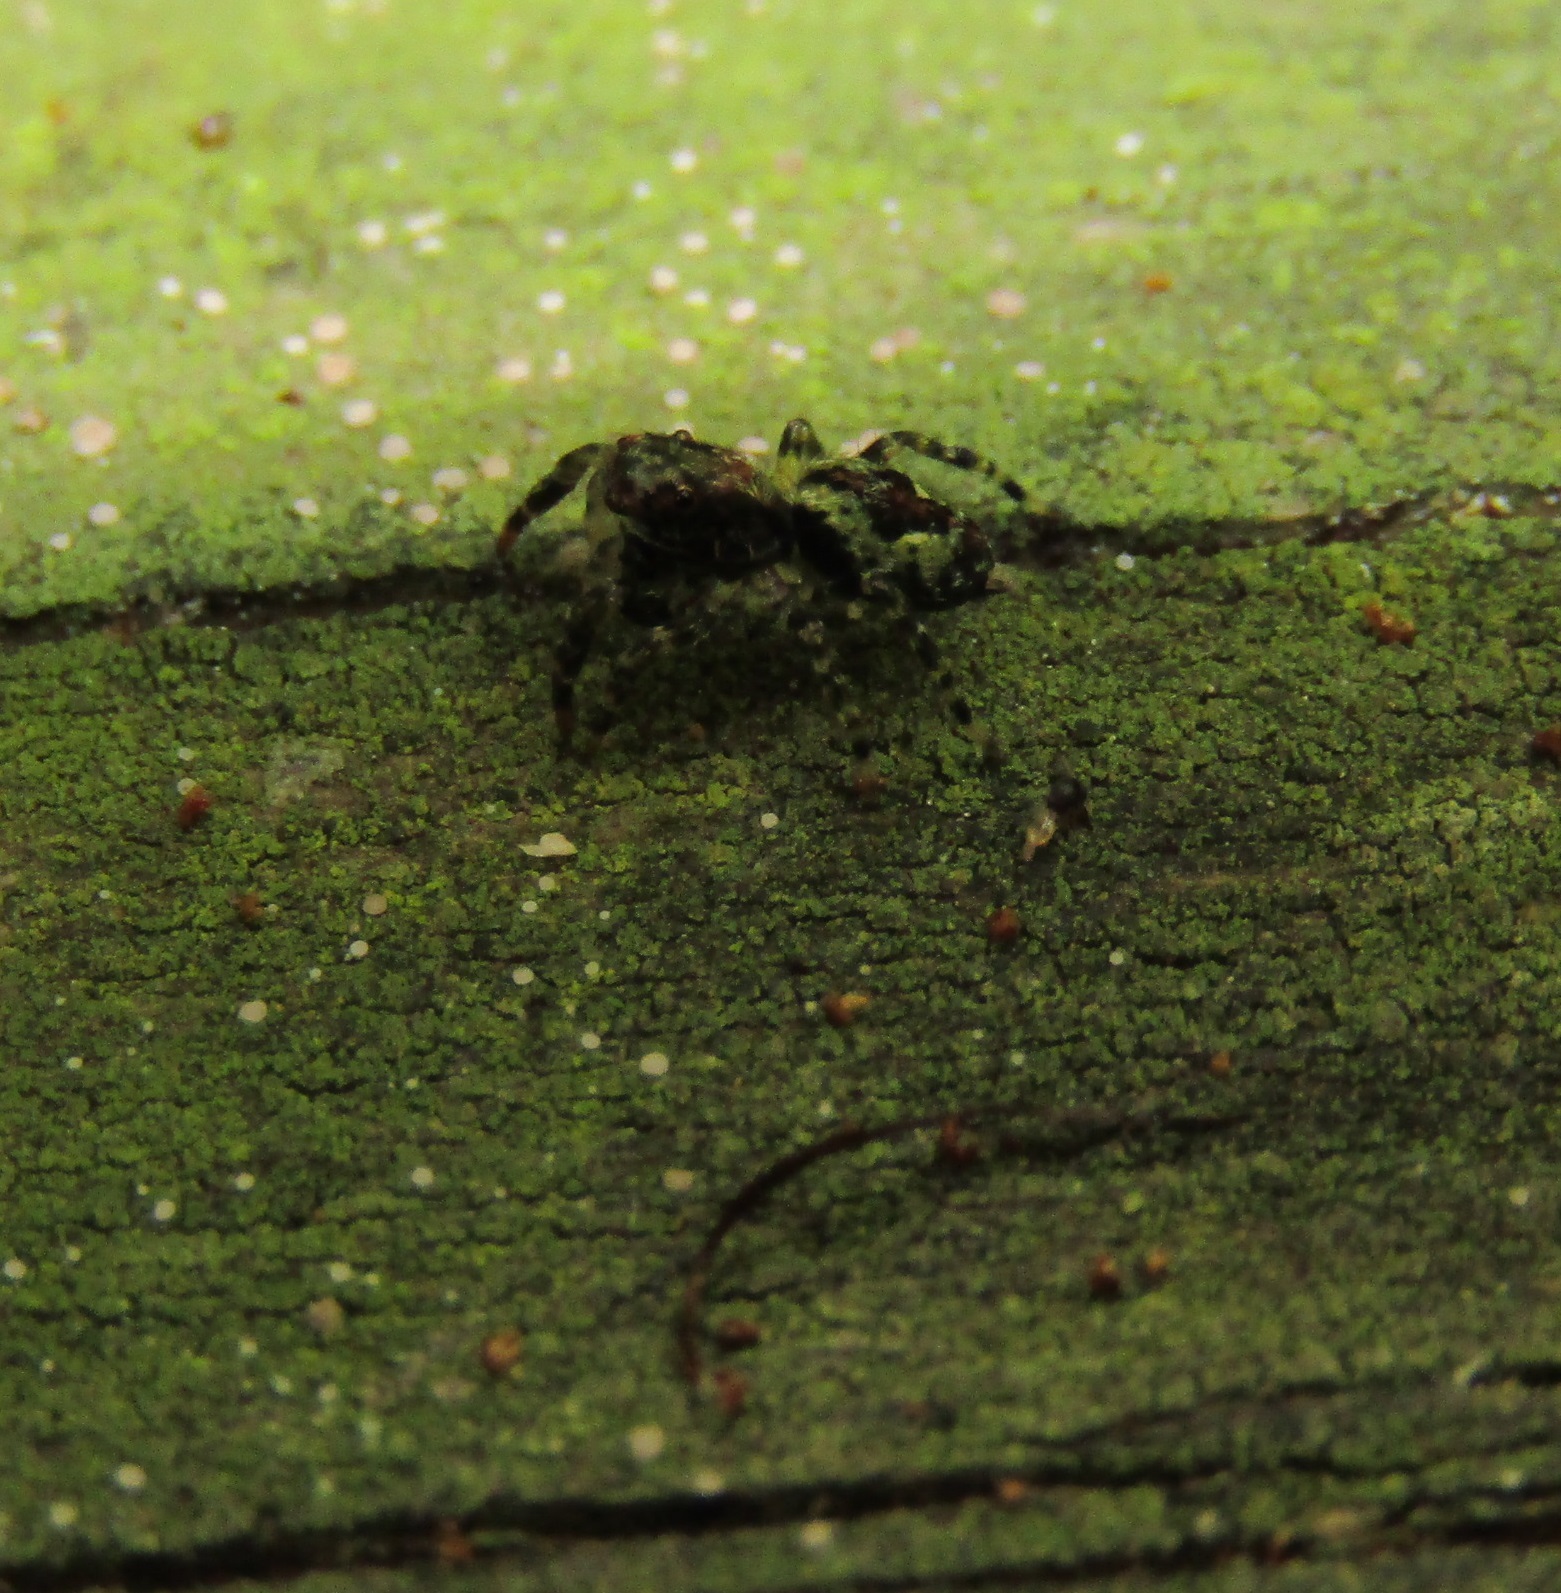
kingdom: Animalia
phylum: Arthropoda
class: Arachnida
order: Araneae
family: Salticidae
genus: Hinewaia
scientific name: Hinewaia embolica
